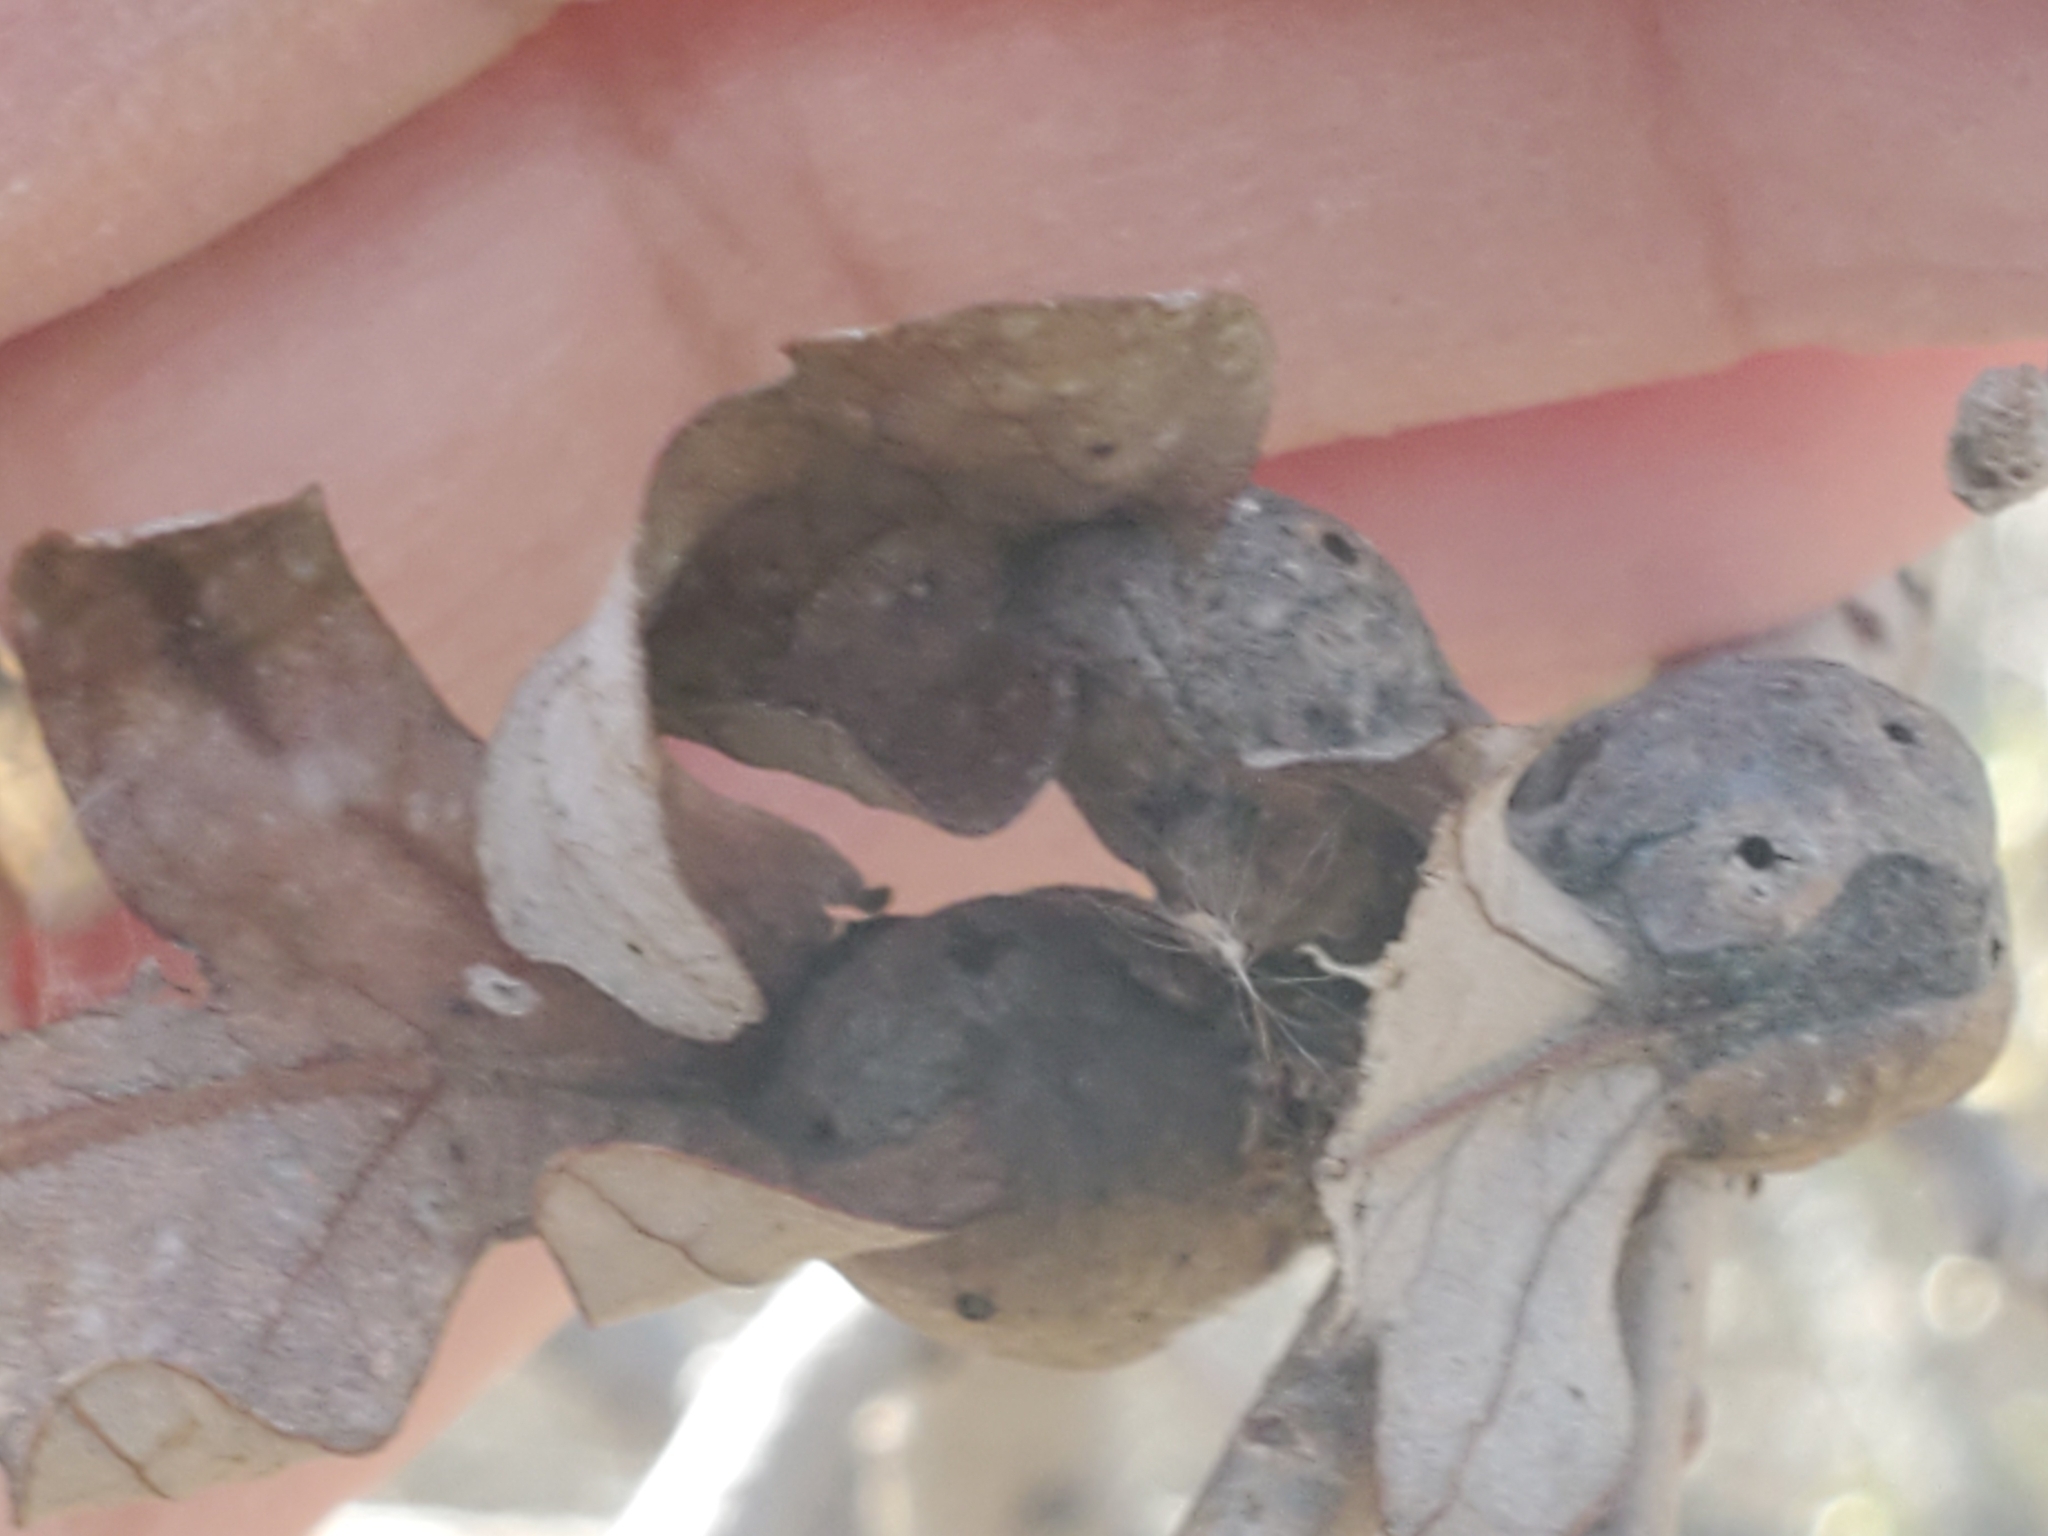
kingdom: Animalia
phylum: Arthropoda
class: Insecta
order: Hymenoptera
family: Cynipidae
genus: Andricus
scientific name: Andricus
